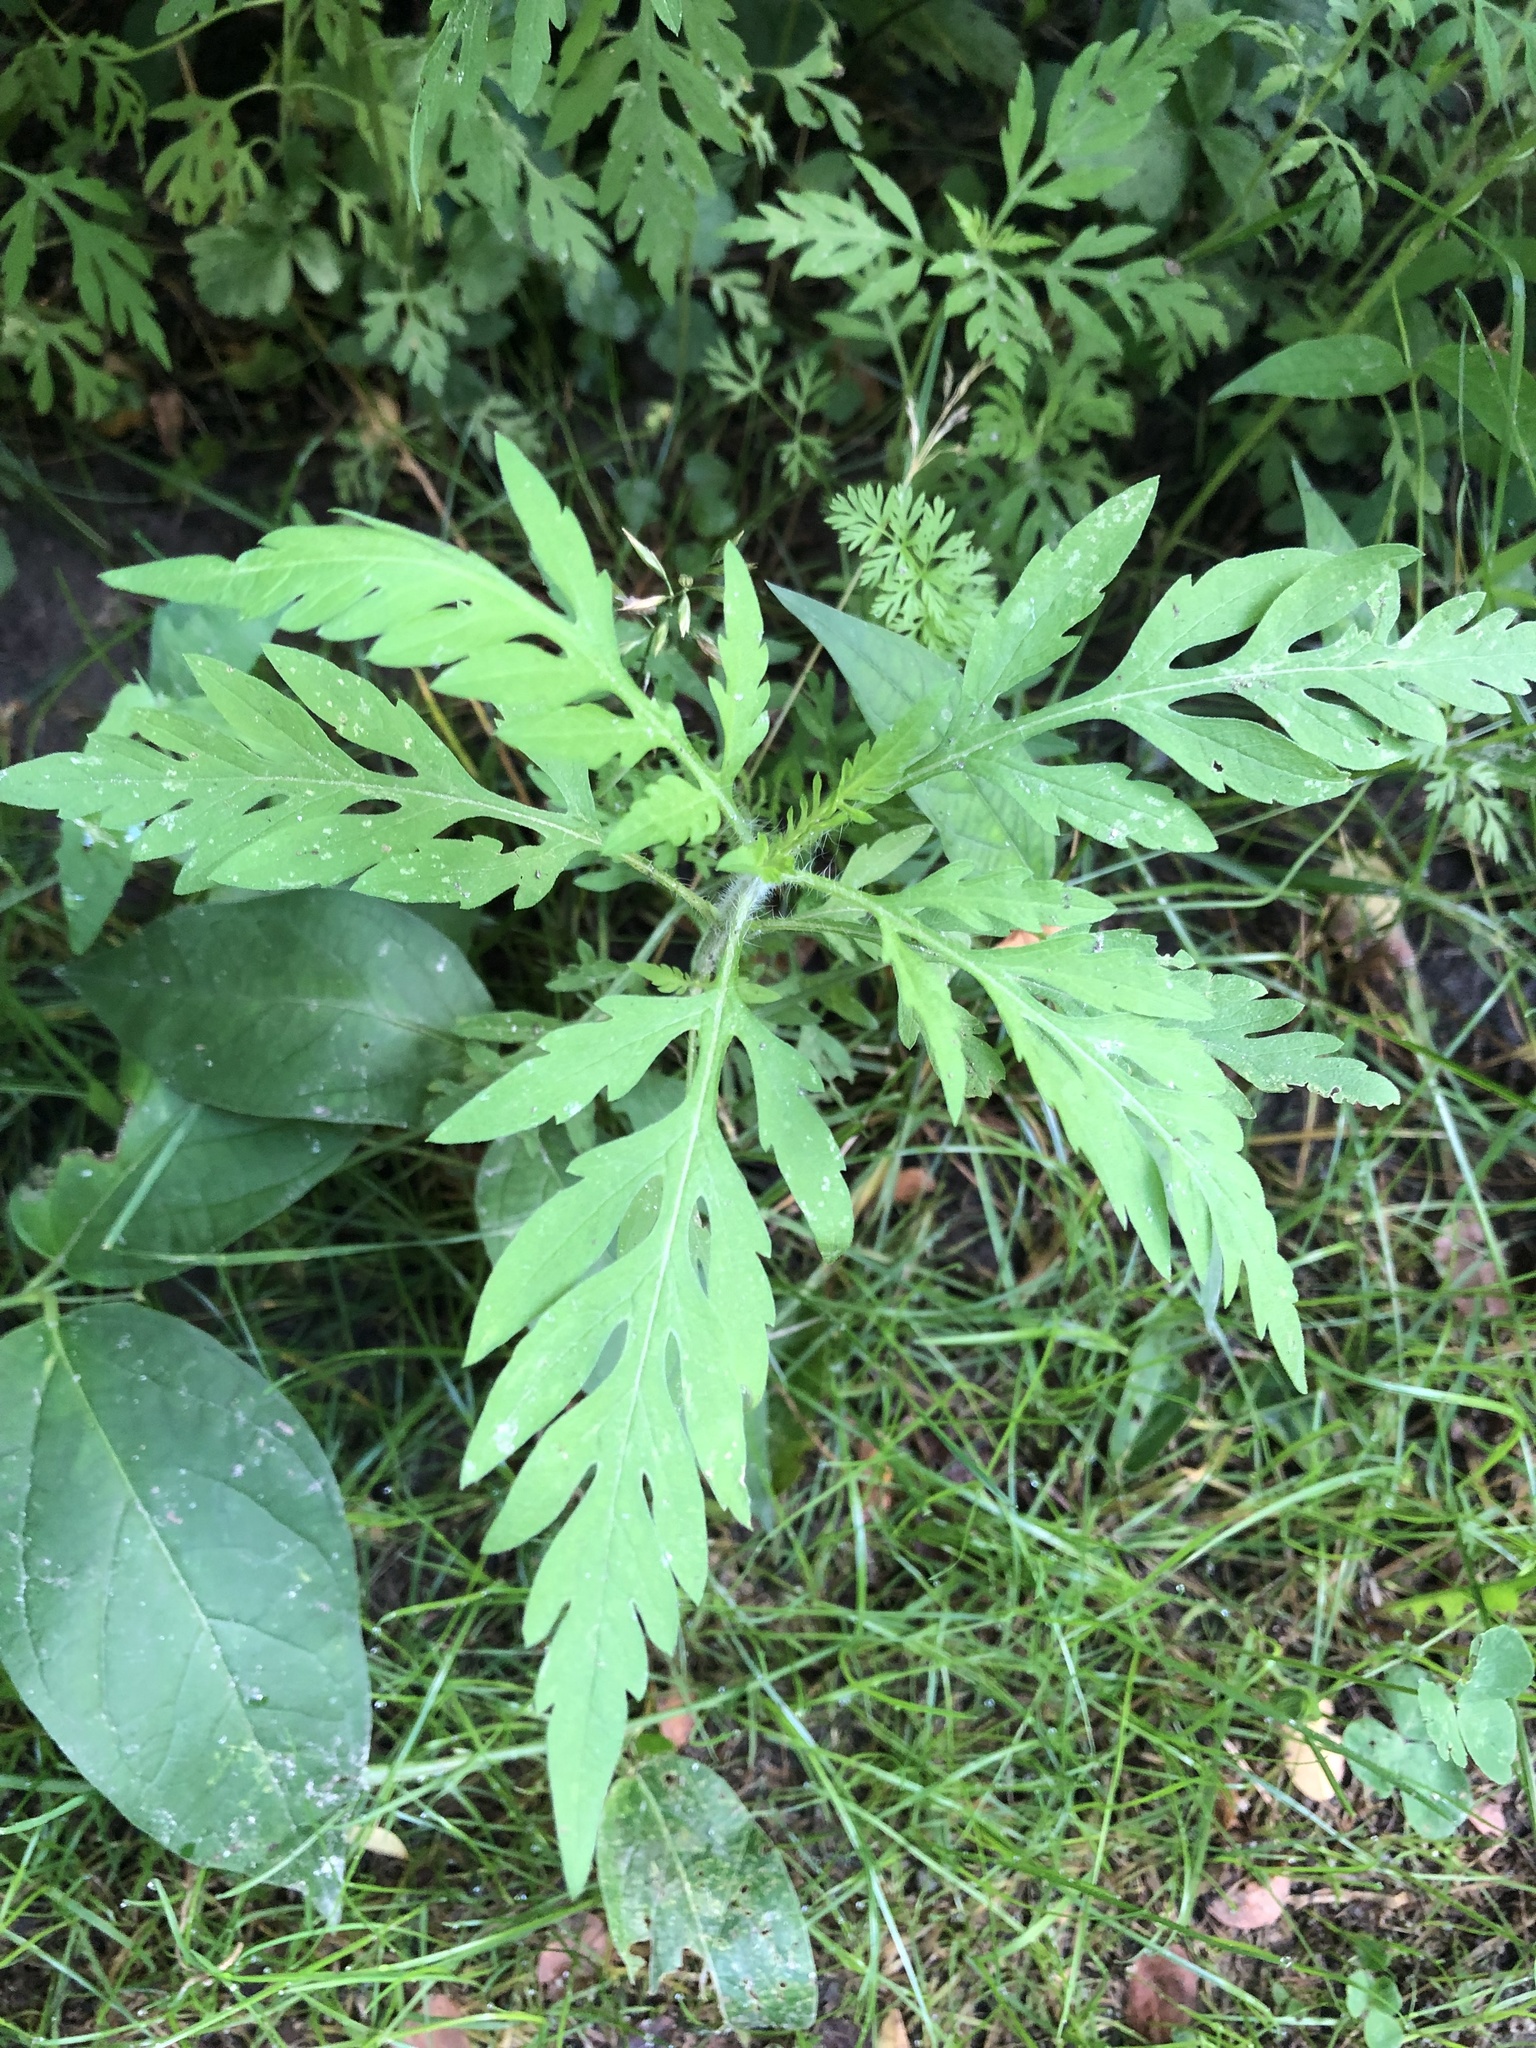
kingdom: Plantae
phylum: Tracheophyta
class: Magnoliopsida
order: Asterales
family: Asteraceae
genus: Ambrosia
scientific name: Ambrosia artemisiifolia
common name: Annual ragweed
